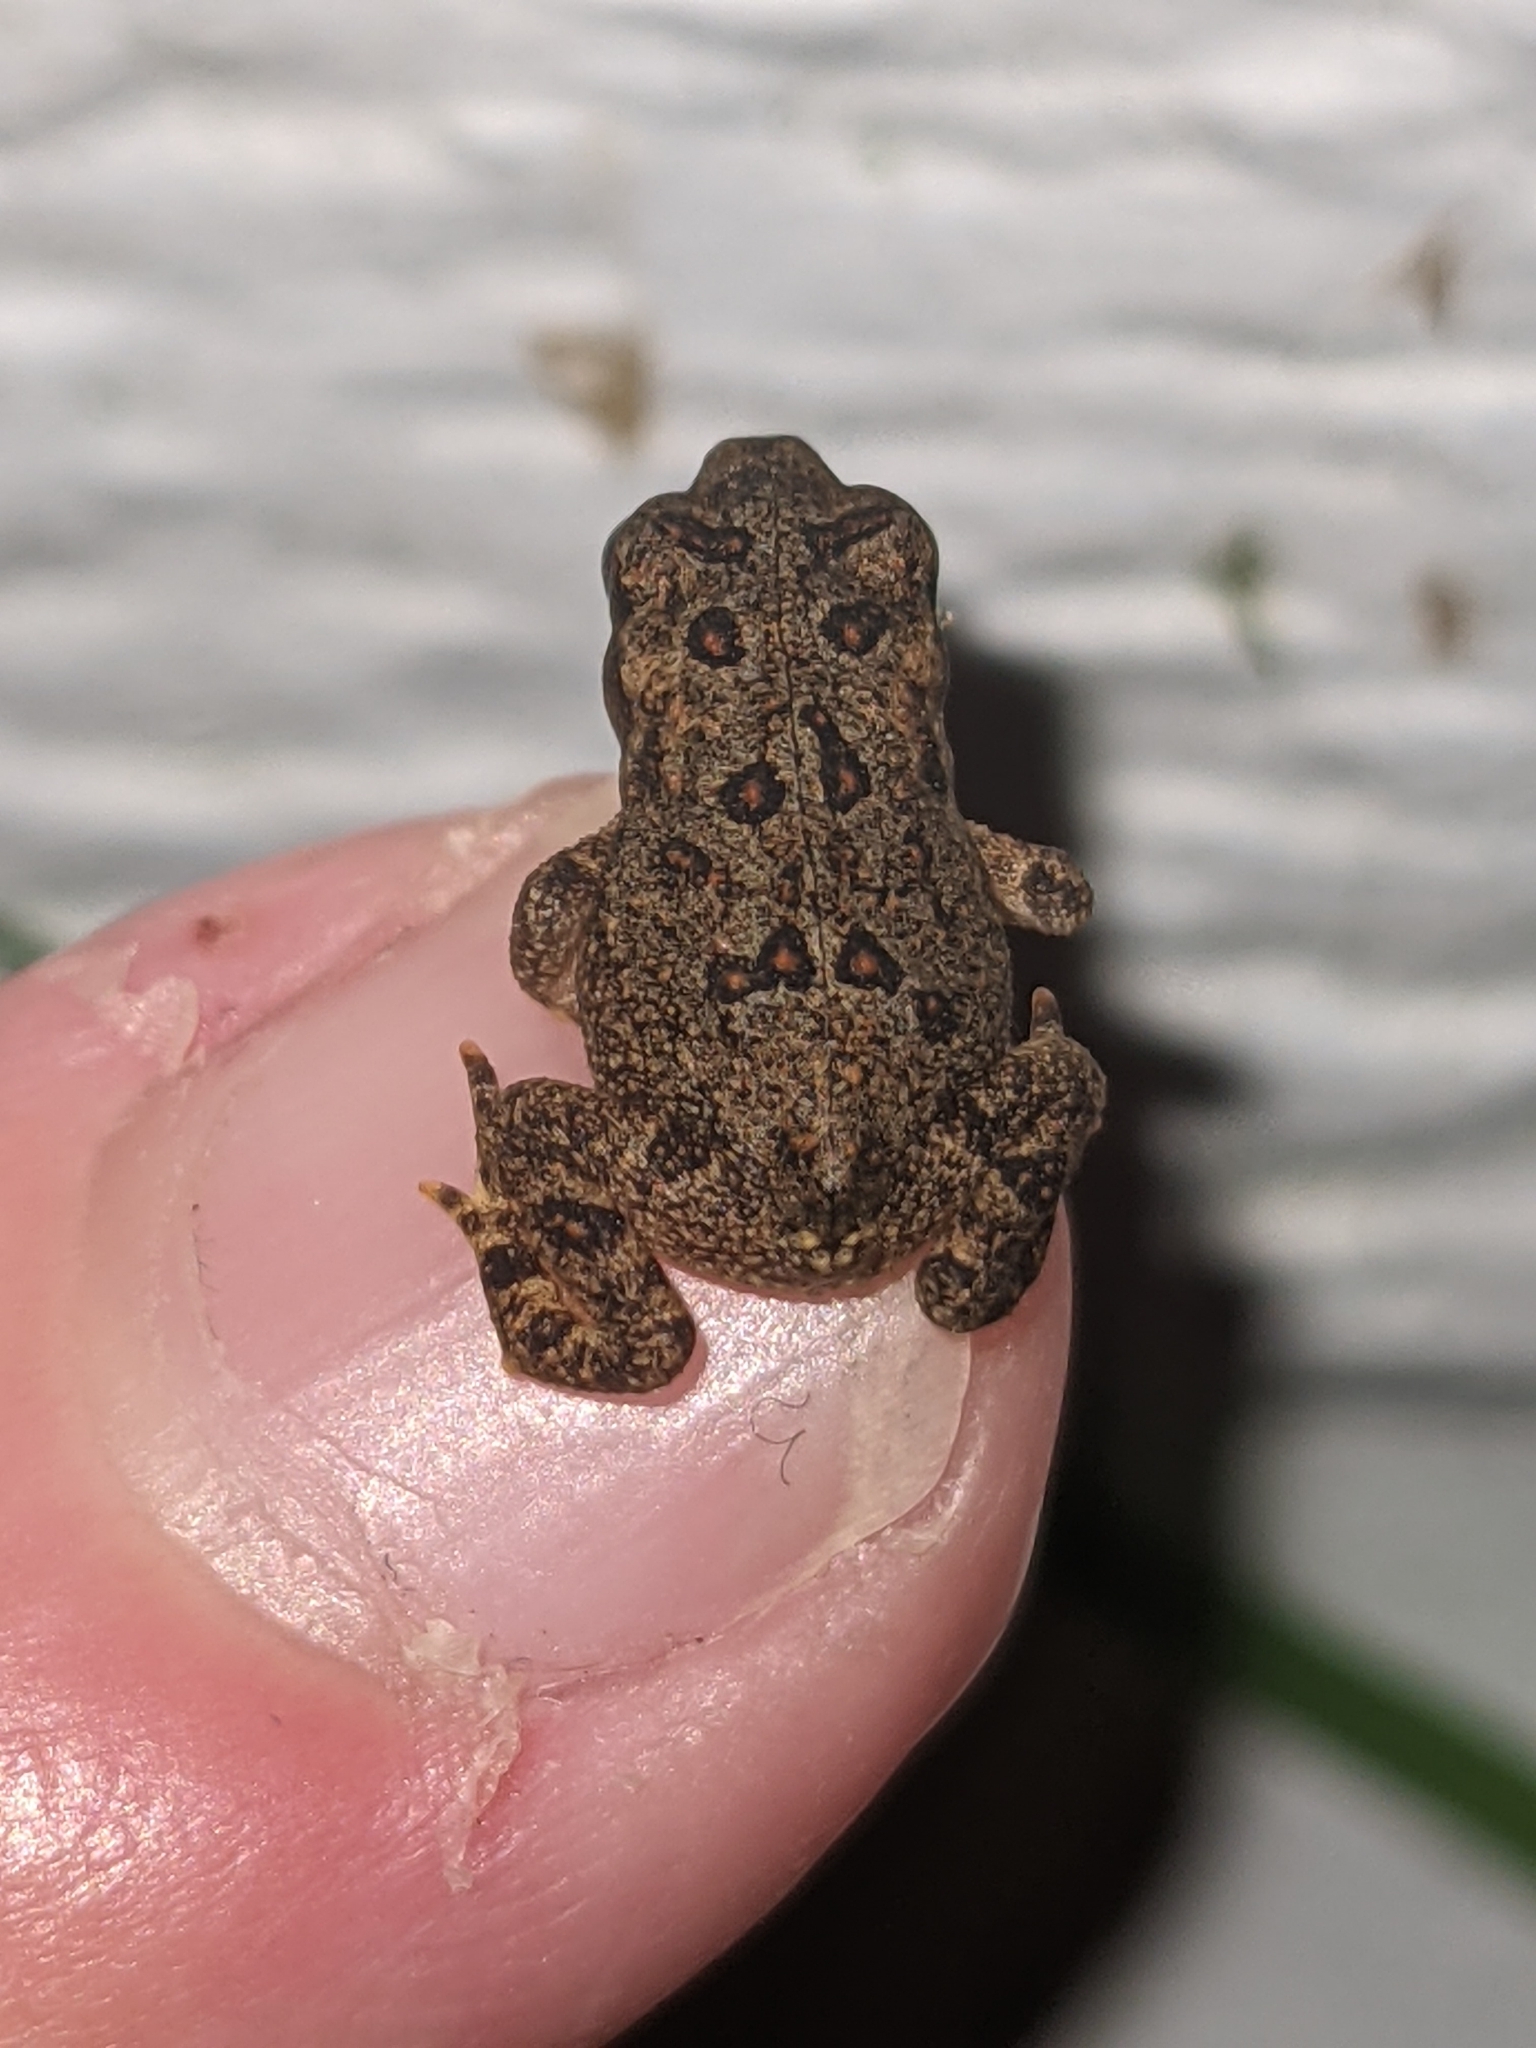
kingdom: Animalia
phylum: Chordata
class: Amphibia
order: Anura
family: Bufonidae
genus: Anaxyrus
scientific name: Anaxyrus americanus
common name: American toad
